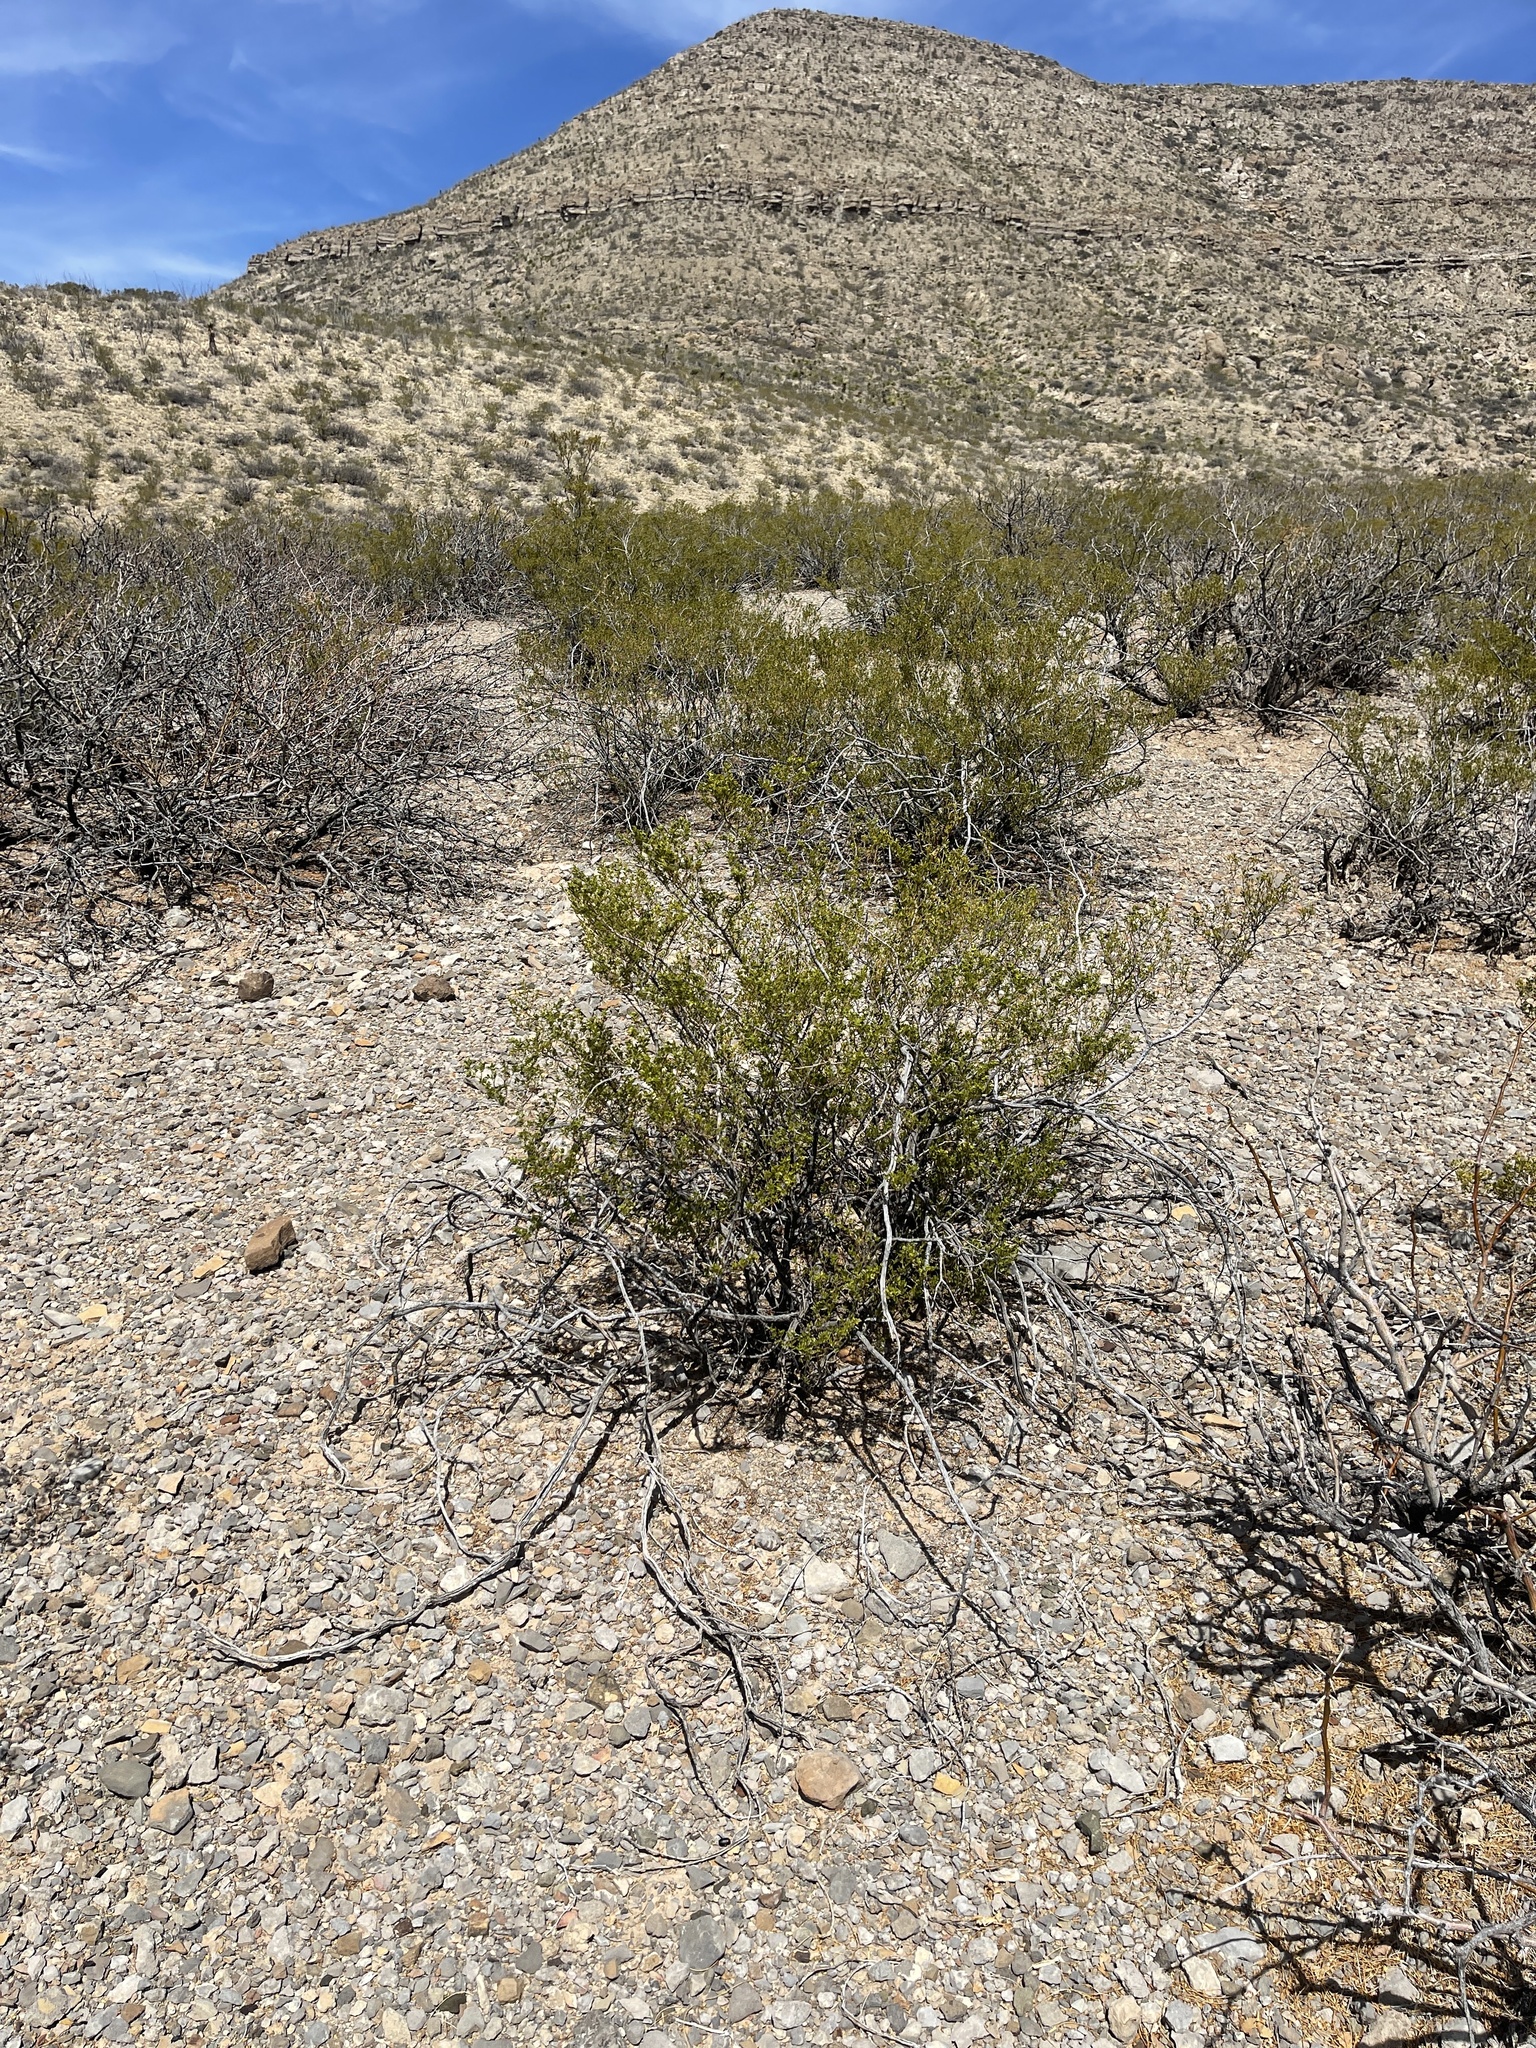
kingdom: Plantae
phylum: Tracheophyta
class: Magnoliopsida
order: Zygophyllales
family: Zygophyllaceae
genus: Larrea
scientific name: Larrea tridentata
